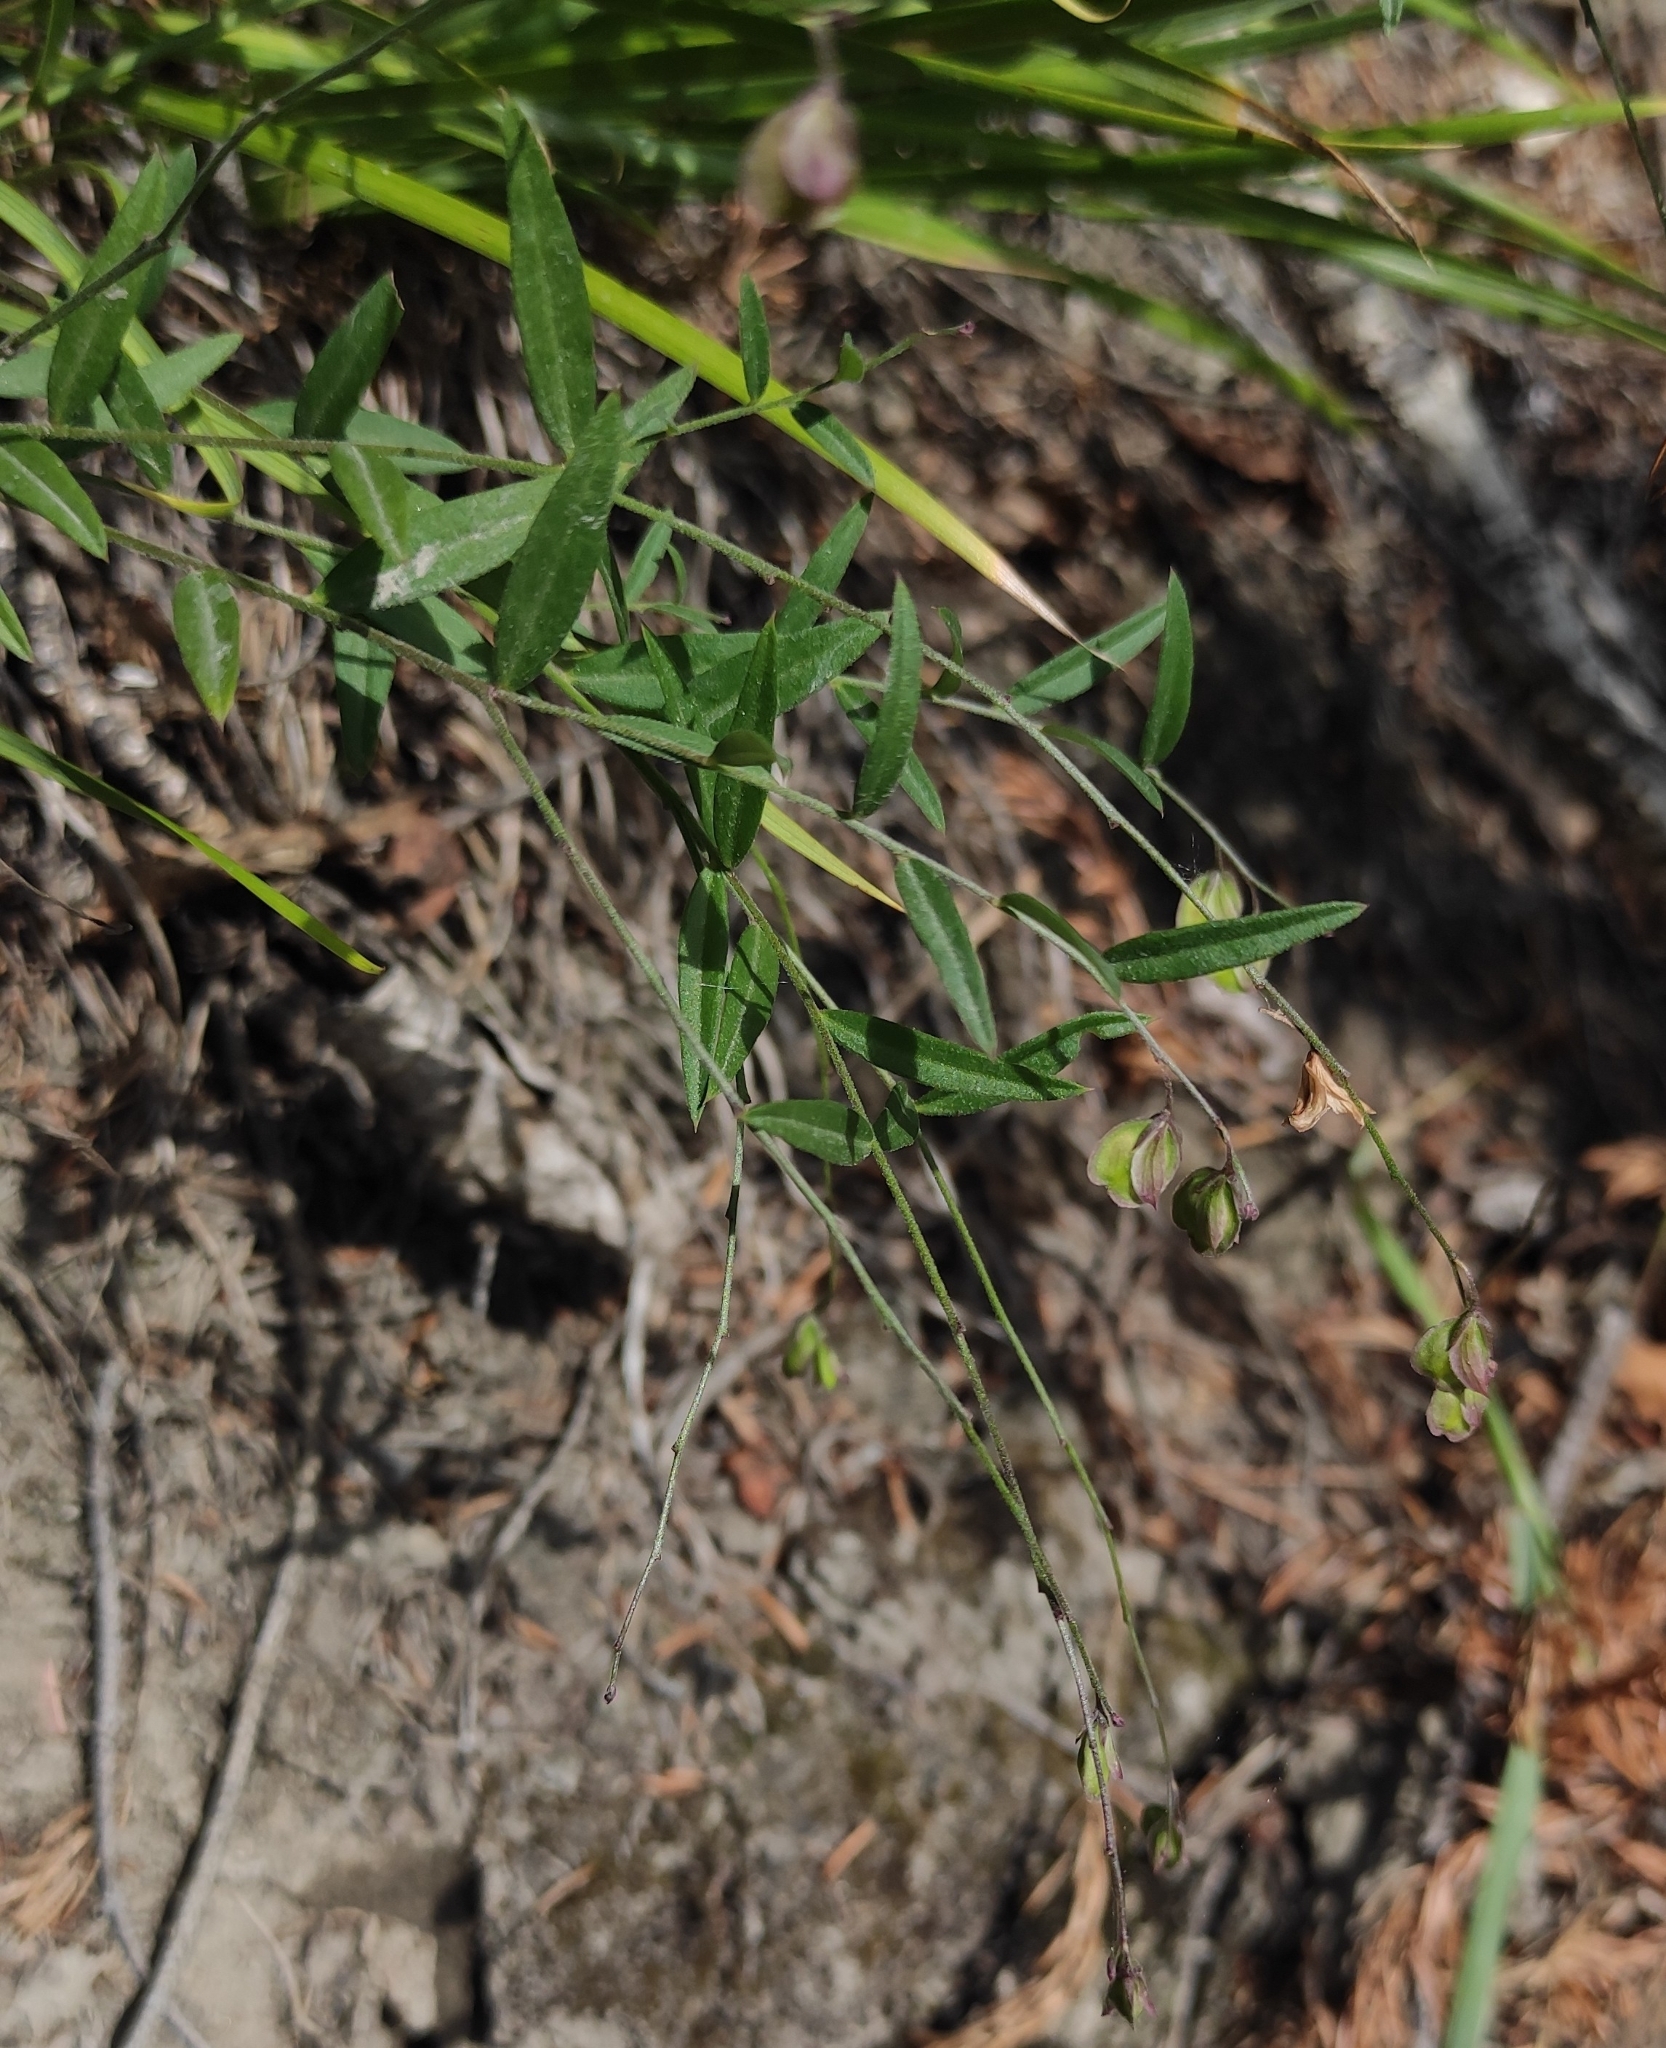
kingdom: Plantae
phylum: Tracheophyta
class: Magnoliopsida
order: Fabales
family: Polygalaceae
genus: Polygala
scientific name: Polygala sibirica
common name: Siberian polygala
